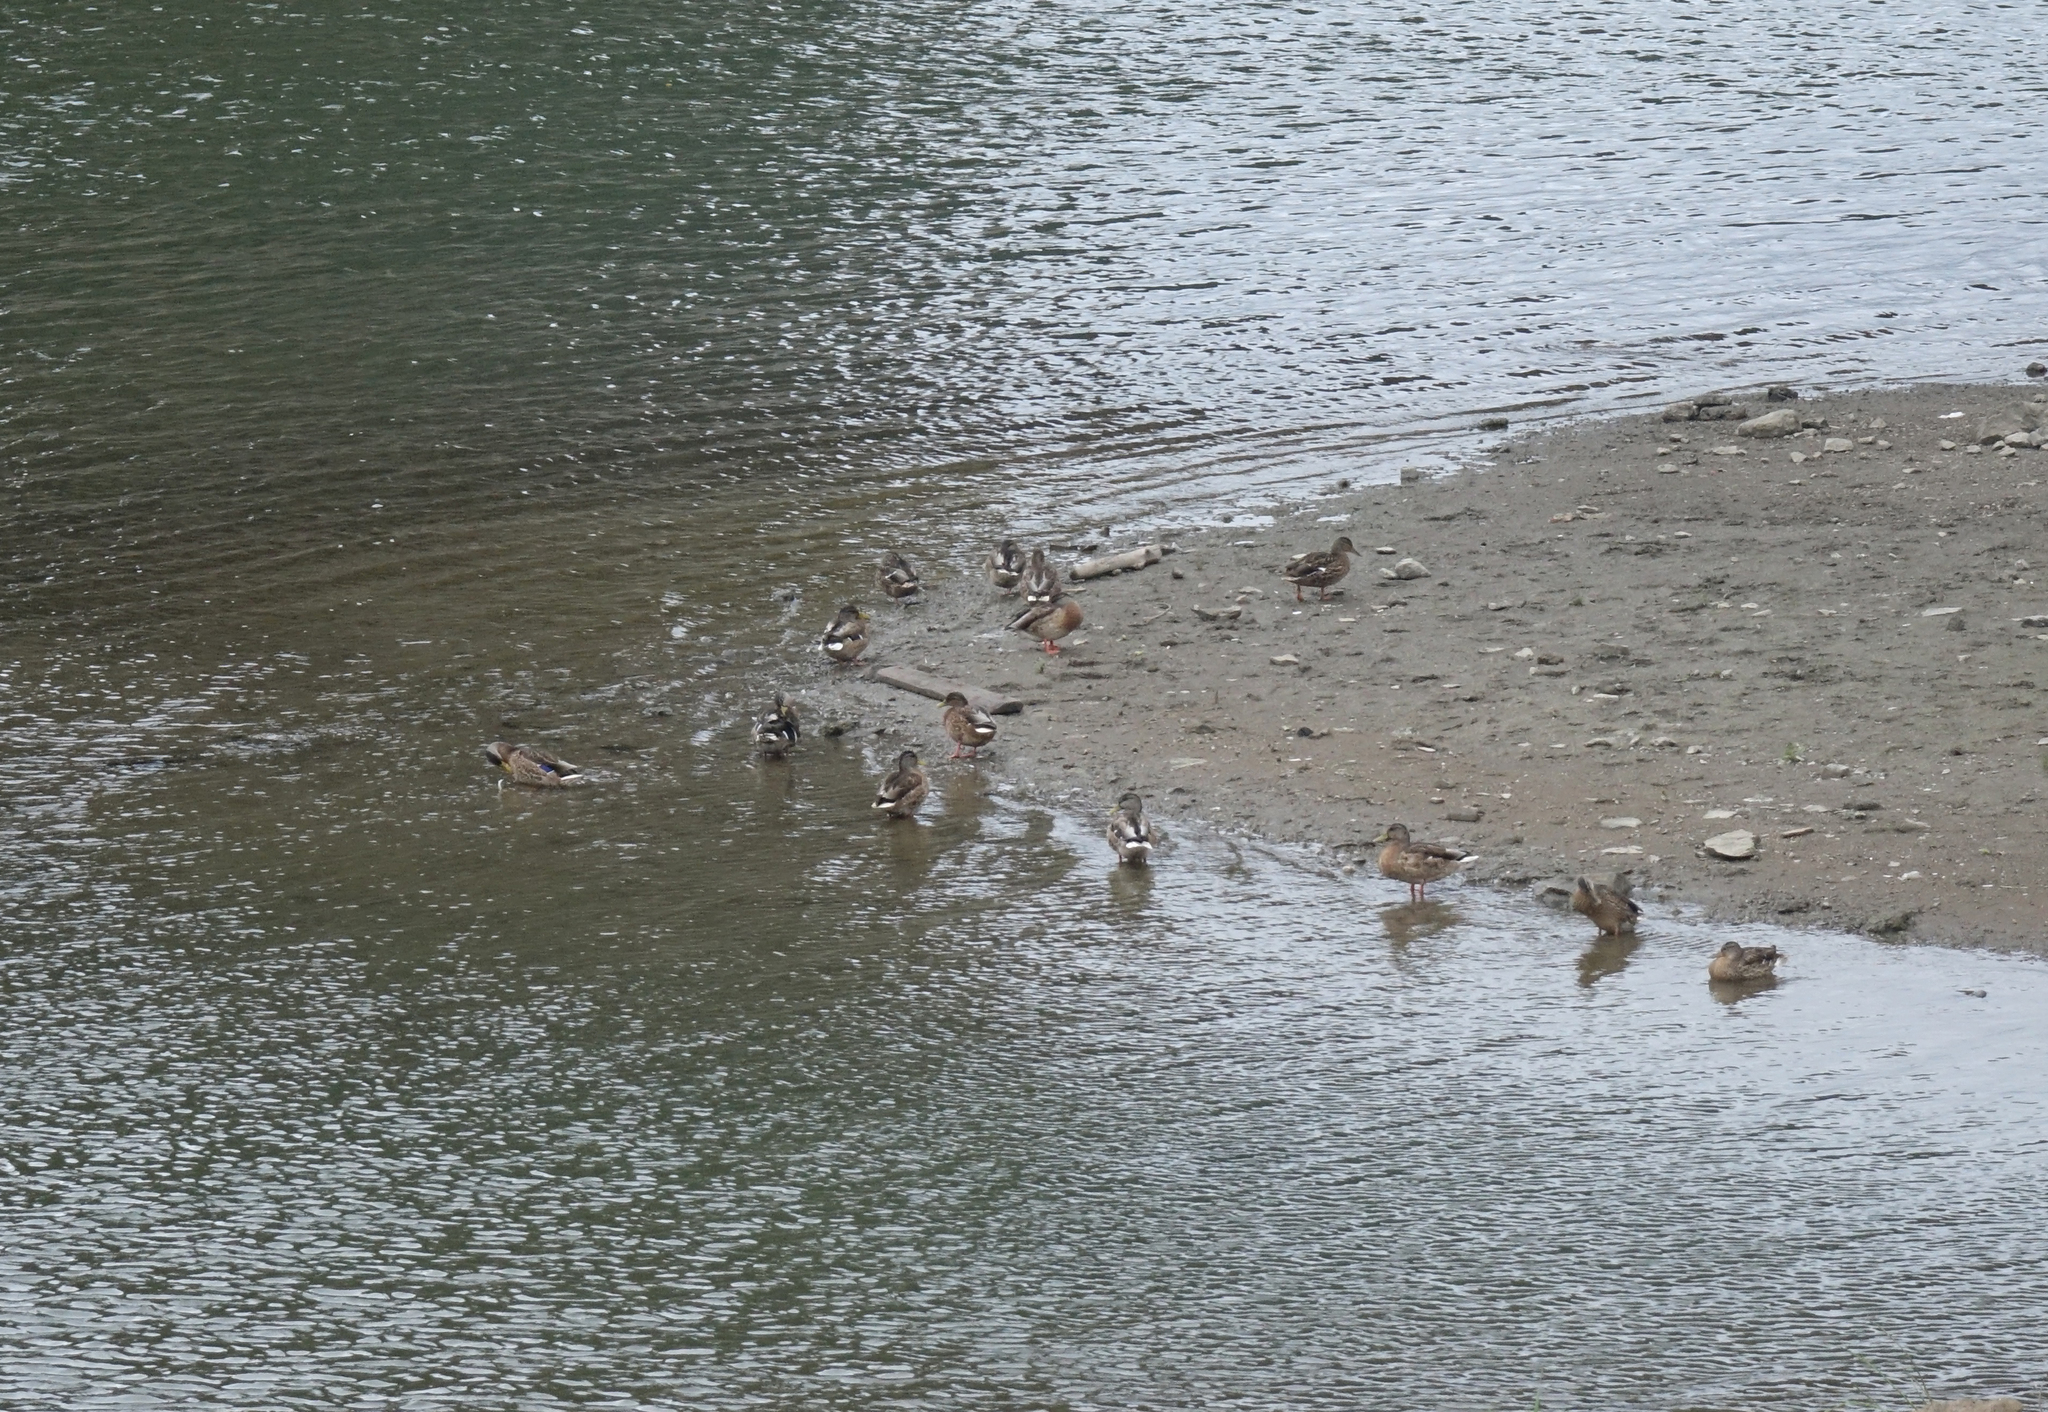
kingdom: Animalia
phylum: Chordata
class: Aves
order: Anseriformes
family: Anatidae
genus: Anas
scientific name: Anas platyrhynchos
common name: Mallard
